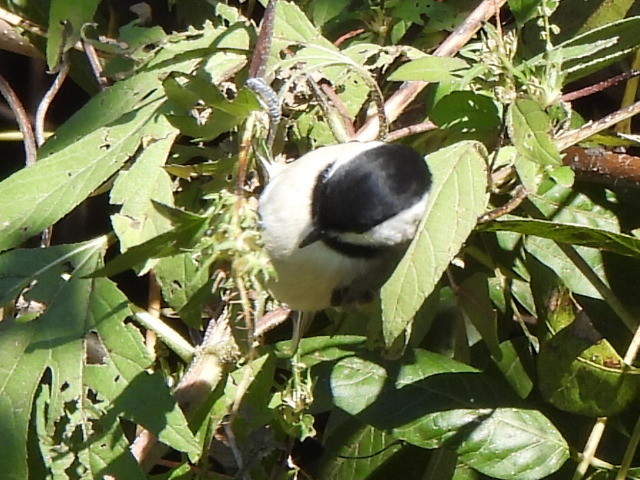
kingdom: Animalia
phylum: Chordata
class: Aves
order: Passeriformes
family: Paridae
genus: Poecile
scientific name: Poecile carolinensis
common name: Carolina chickadee
